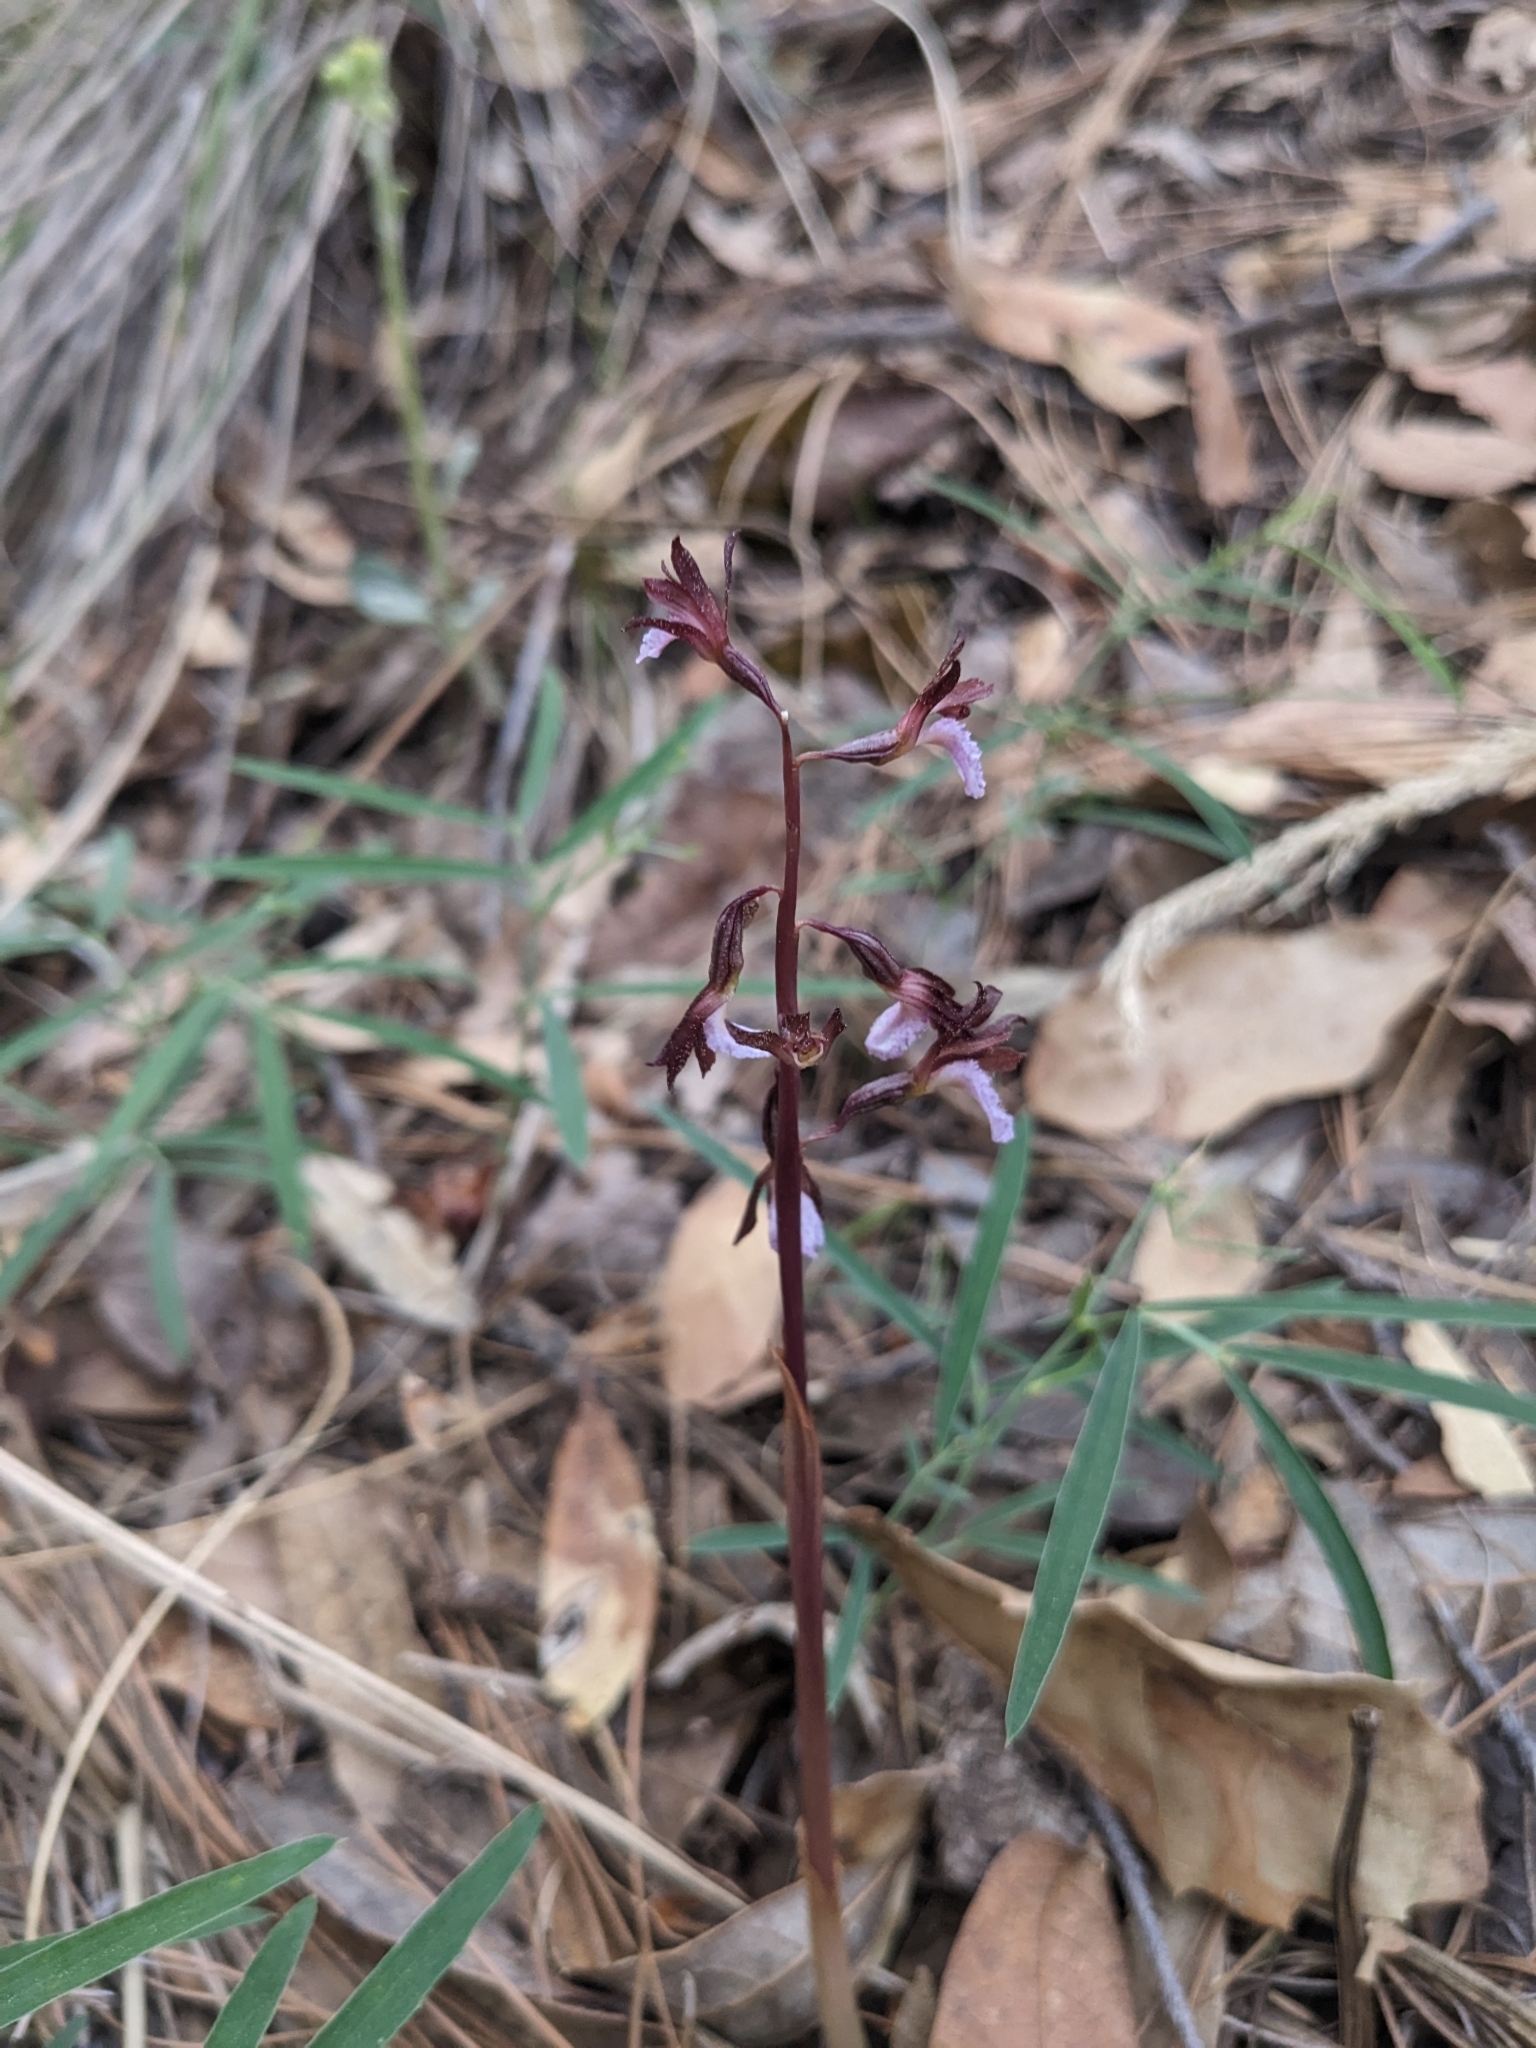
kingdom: Plantae
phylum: Tracheophyta
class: Liliopsida
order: Asparagales
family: Orchidaceae
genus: Corallorhiza
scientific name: Corallorhiza wisteriana
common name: Spring coralroot
